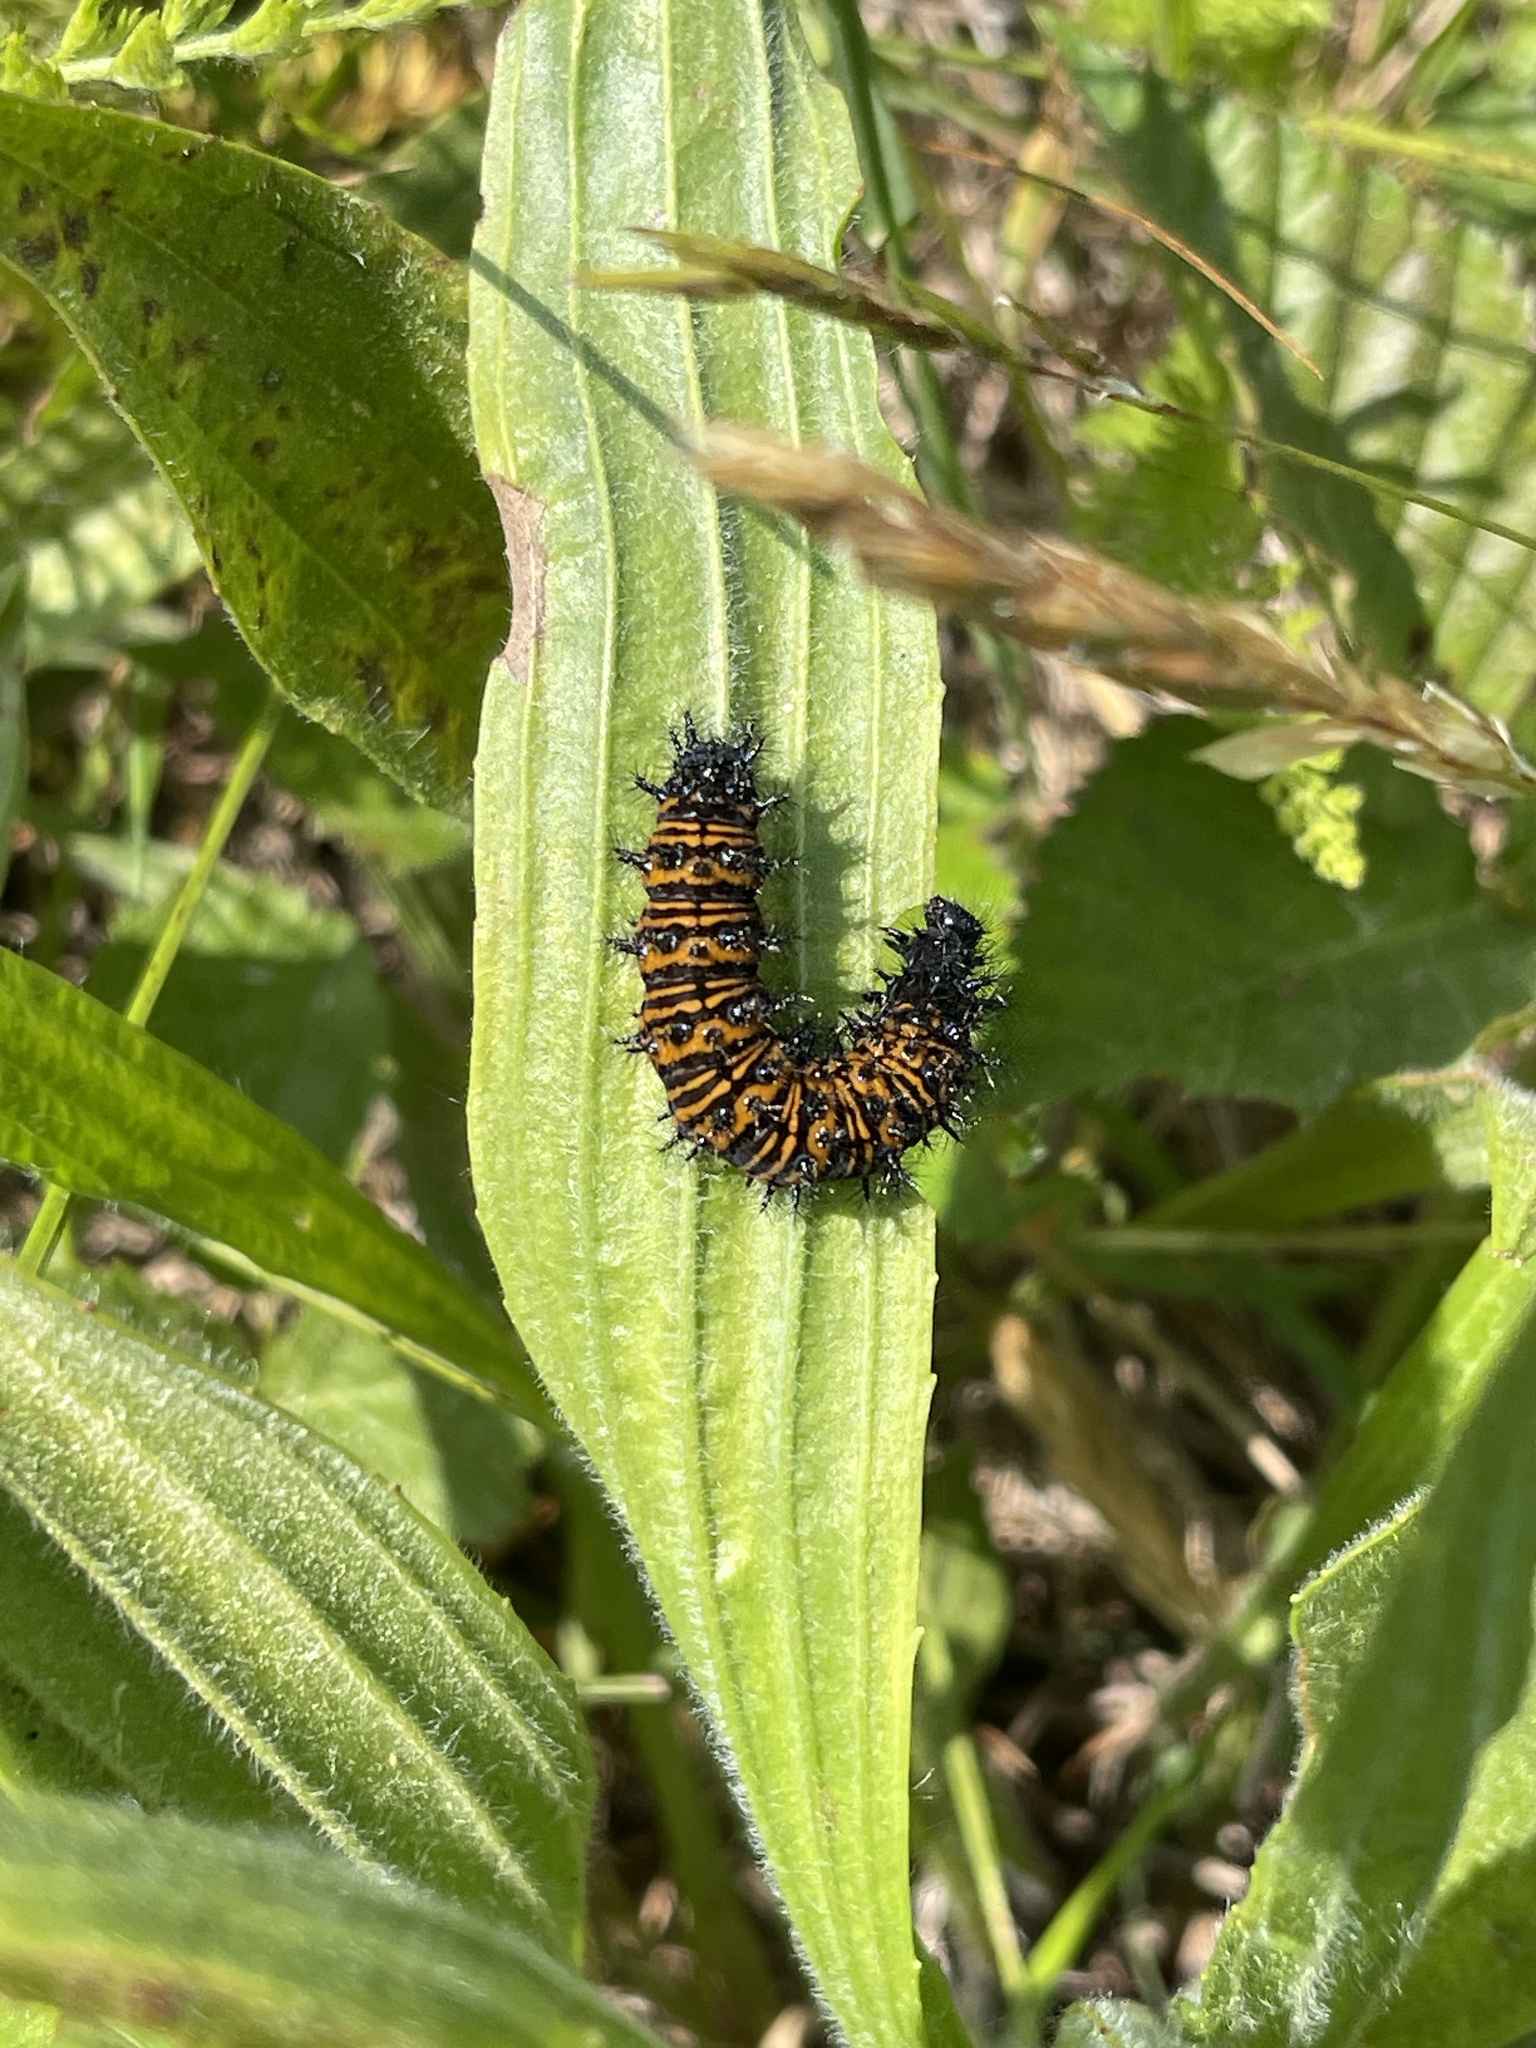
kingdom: Animalia
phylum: Arthropoda
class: Insecta
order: Lepidoptera
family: Nymphalidae
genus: Euphydryas
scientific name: Euphydryas phaeton
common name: Baltimore checkerspot
